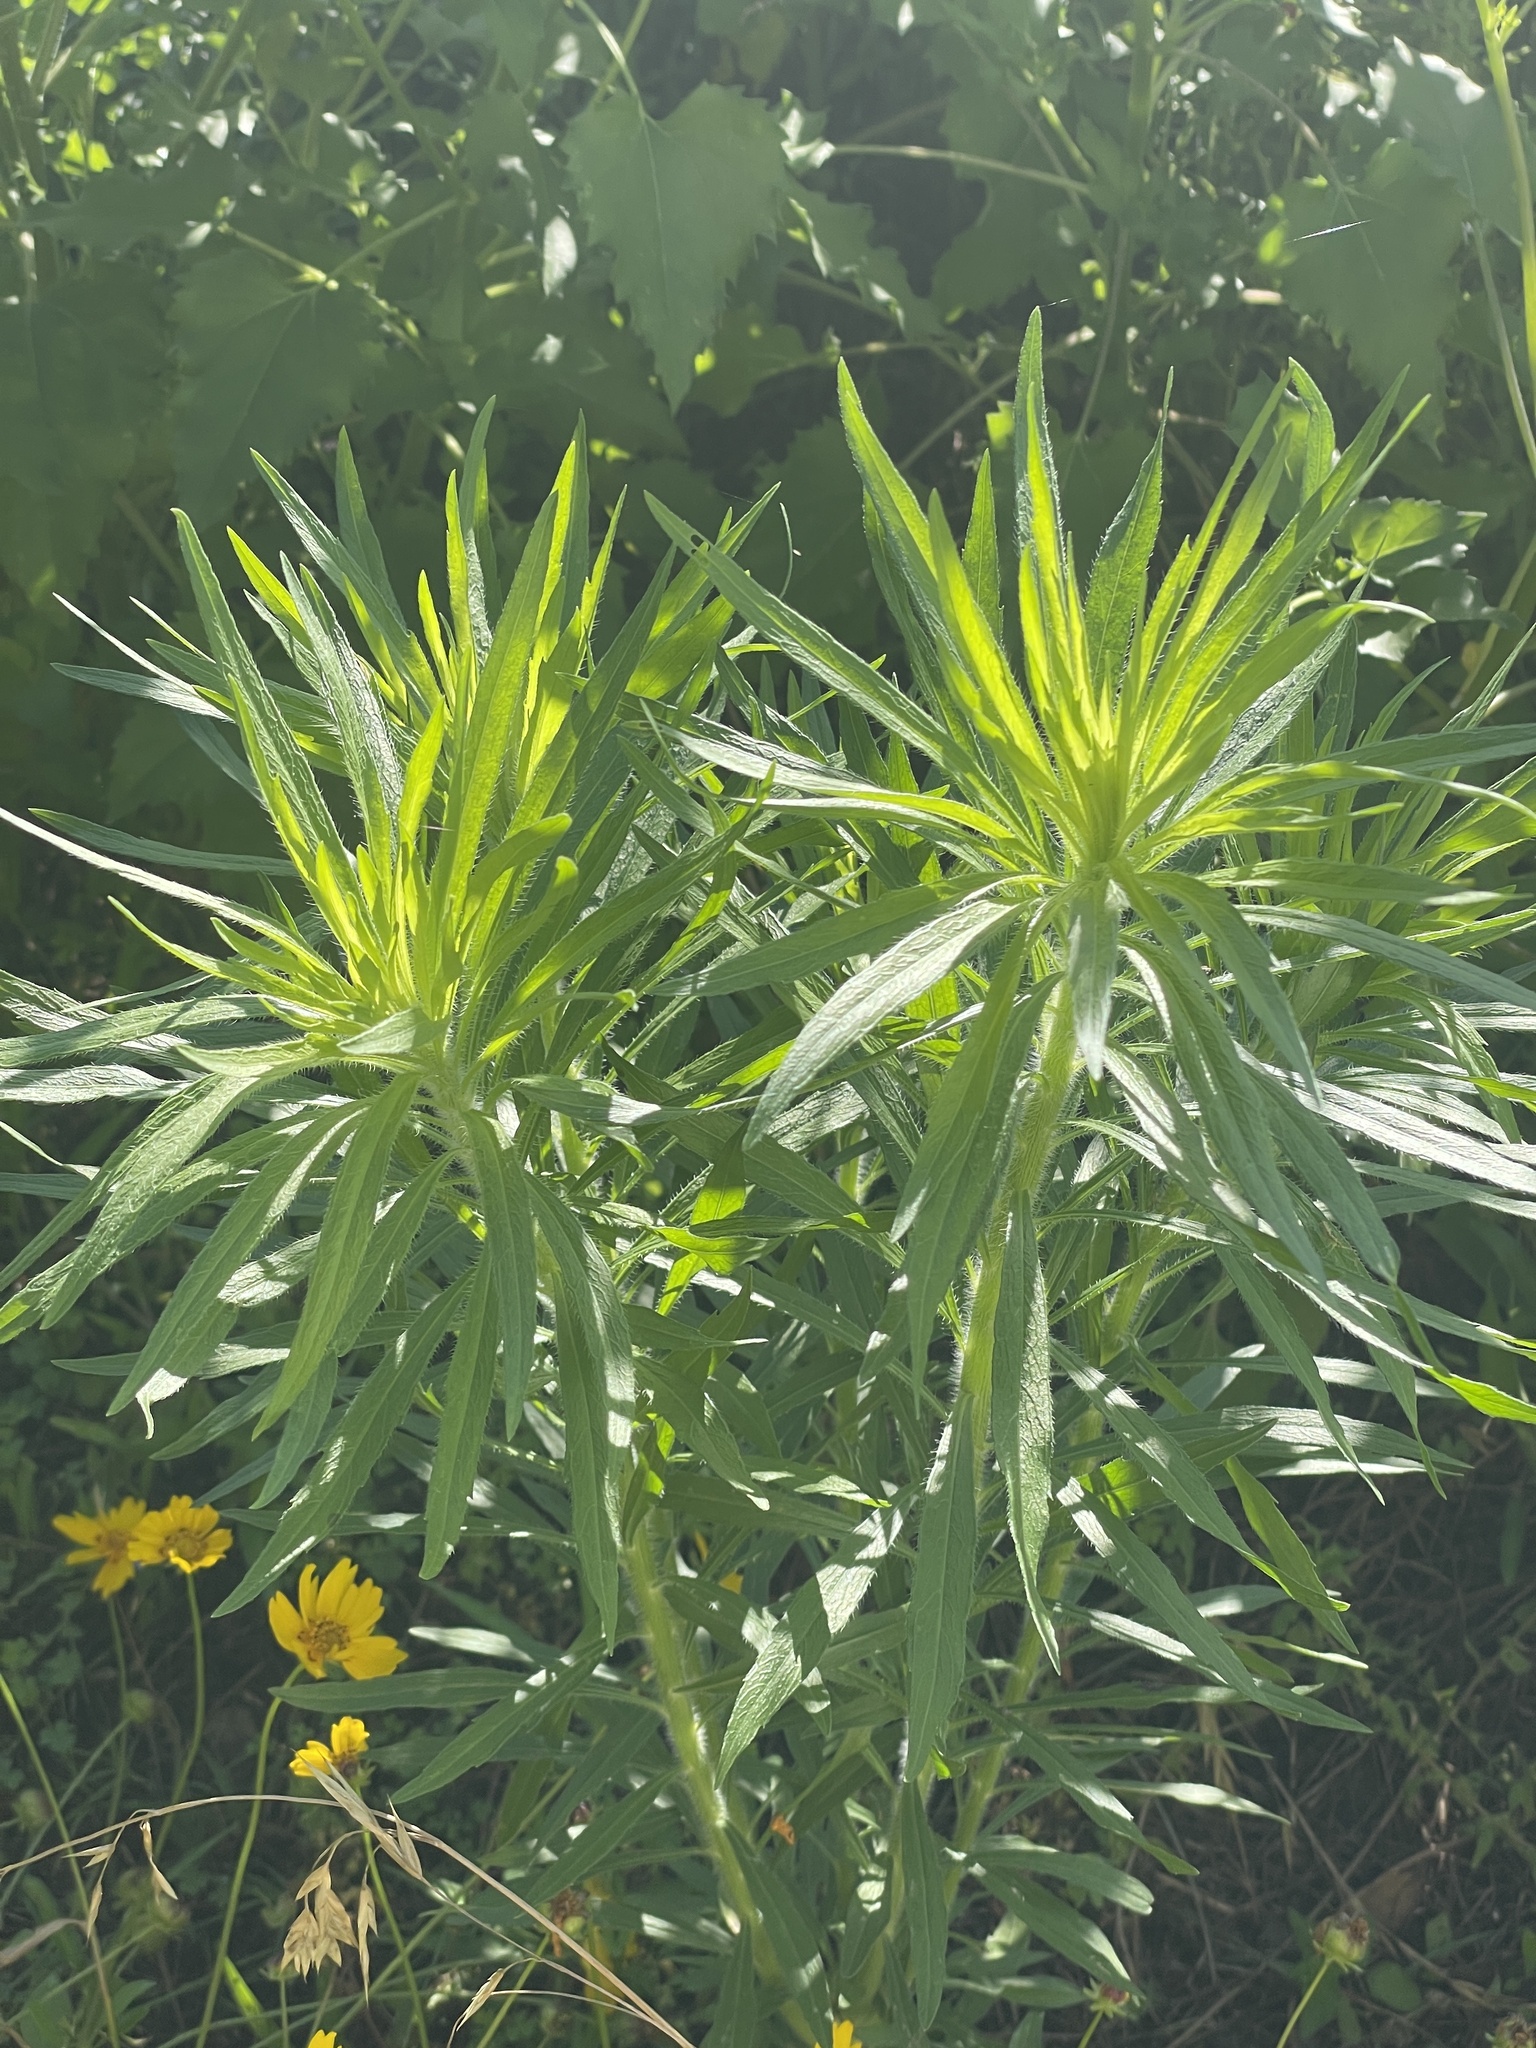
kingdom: Plantae
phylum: Tracheophyta
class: Magnoliopsida
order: Asterales
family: Asteraceae
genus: Erigeron
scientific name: Erigeron canadensis
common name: Canadian fleabane
